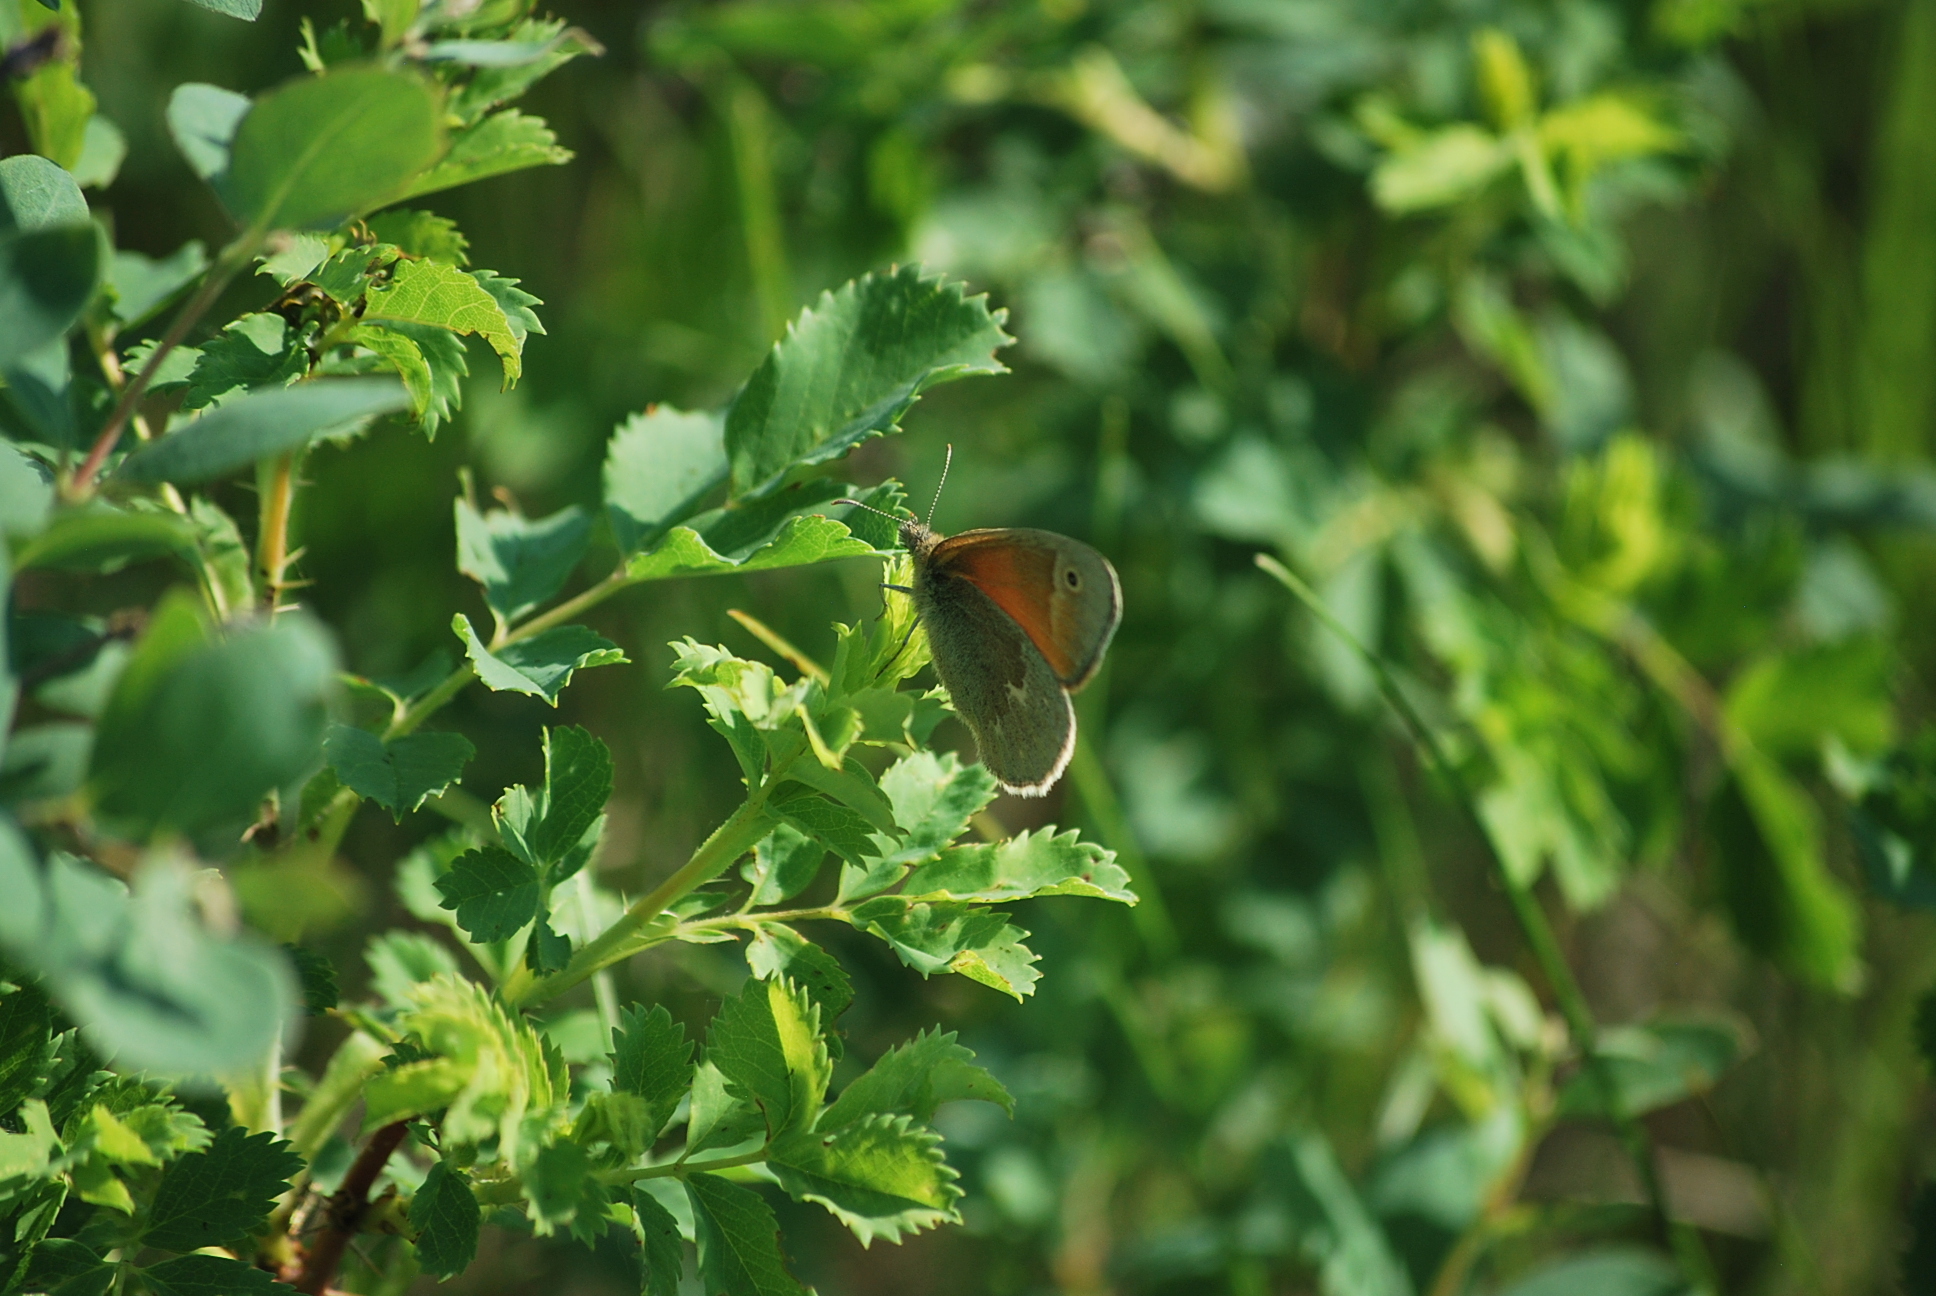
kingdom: Animalia
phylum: Arthropoda
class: Insecta
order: Lepidoptera
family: Nymphalidae
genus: Coenonympha
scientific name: Coenonympha california
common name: Common ringlet
